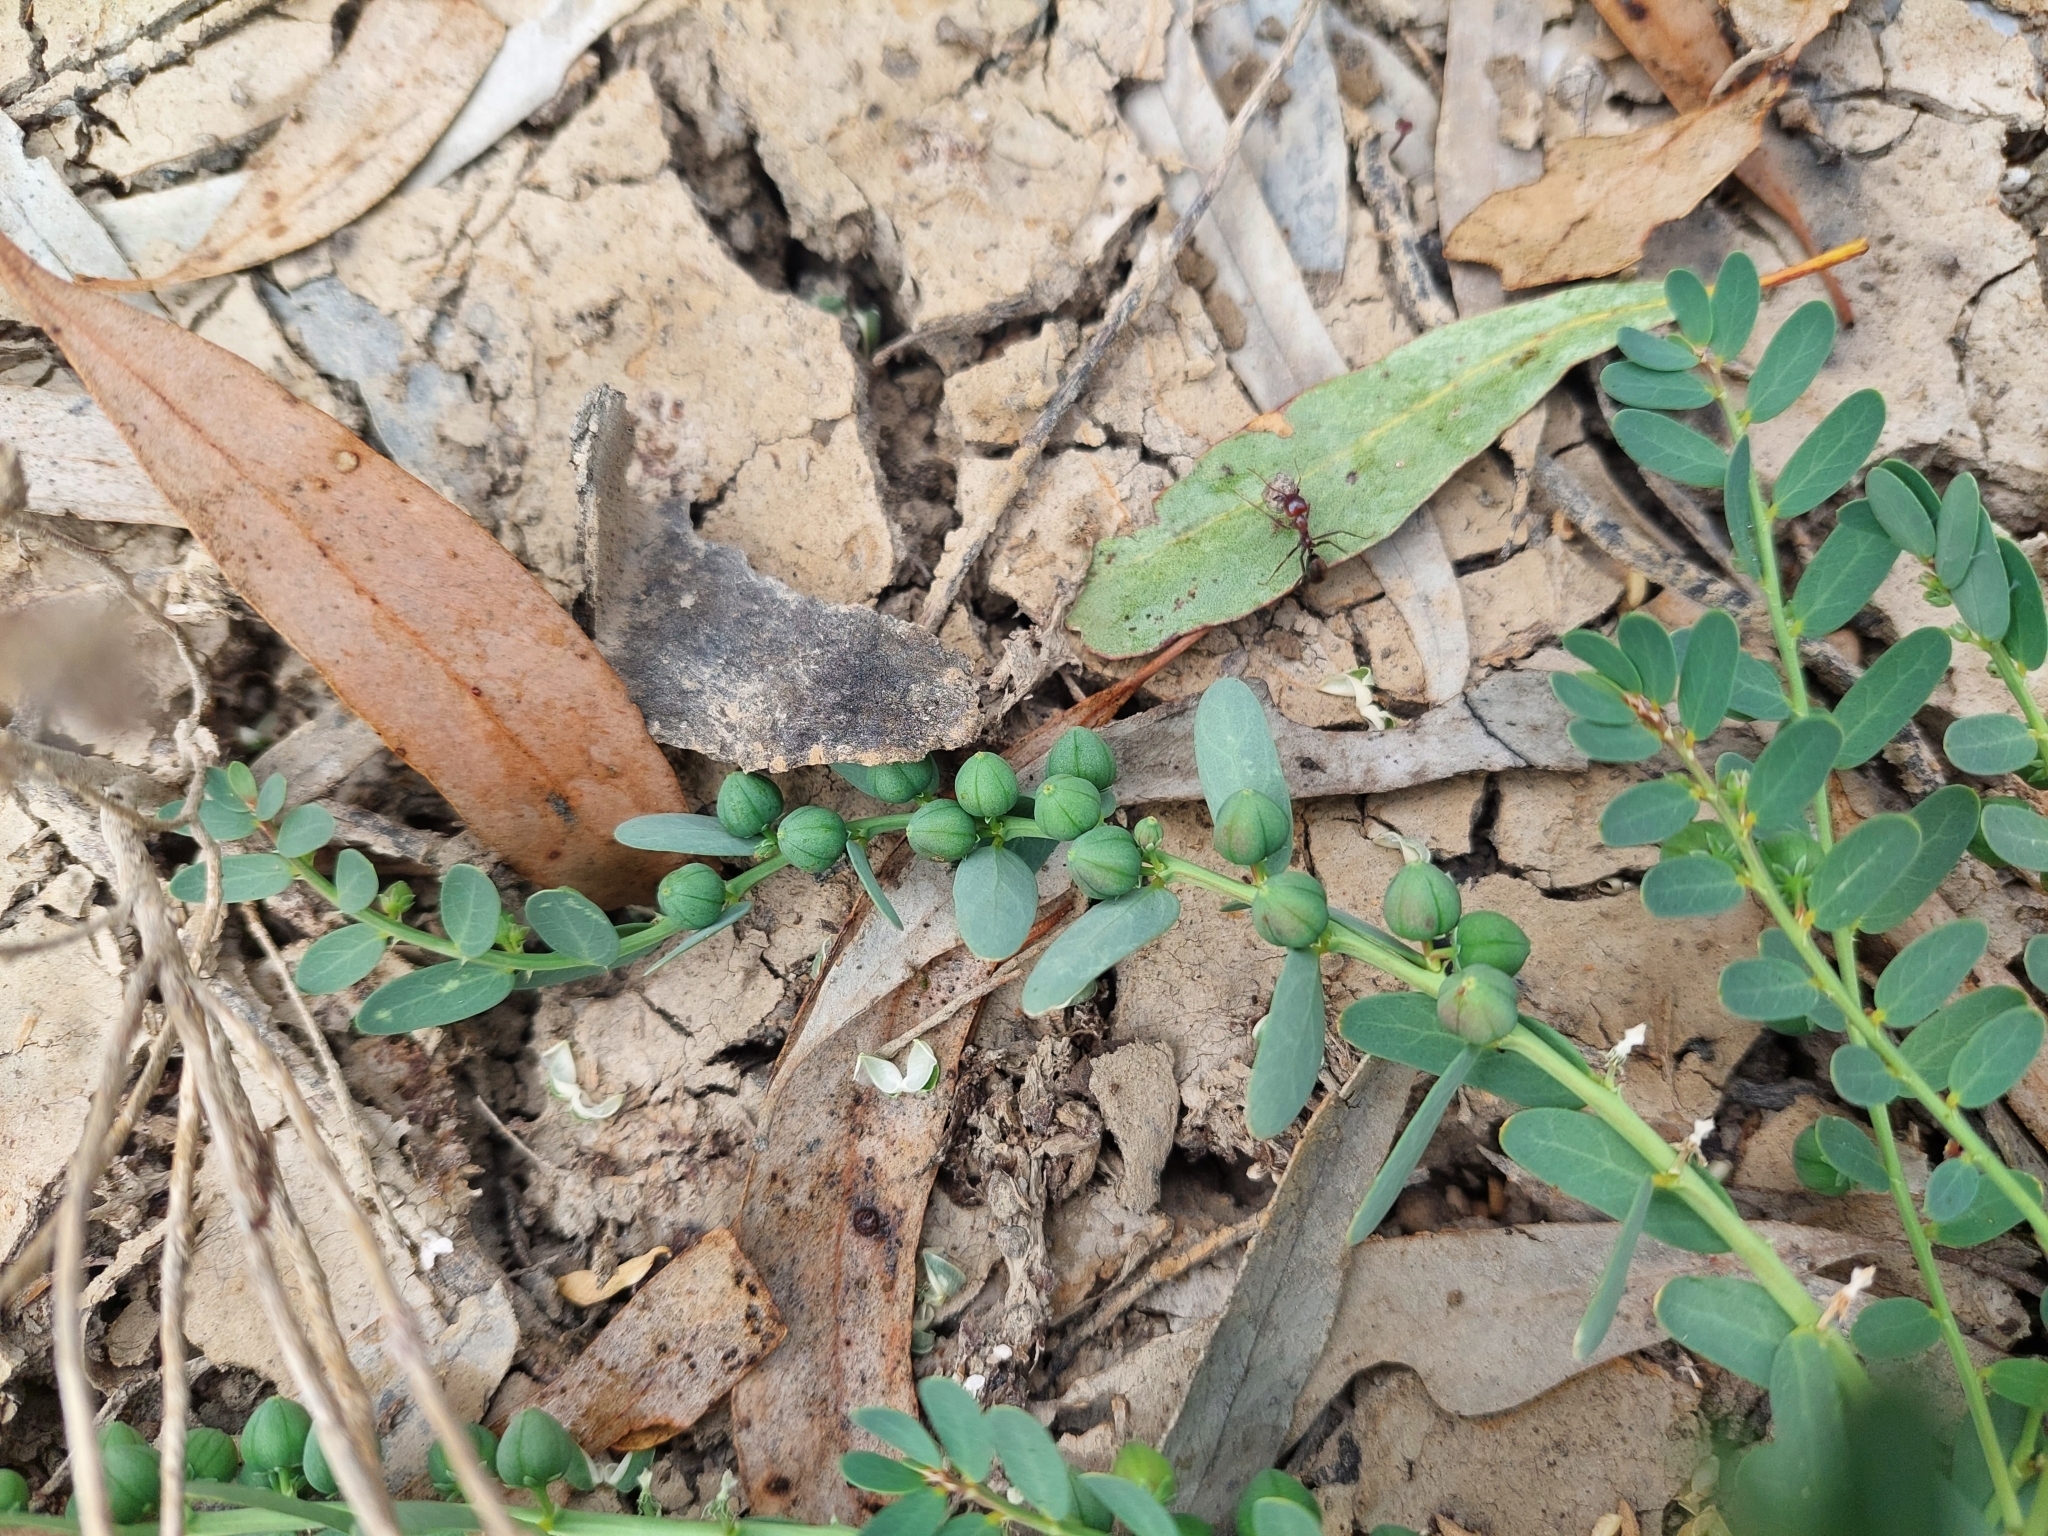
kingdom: Plantae
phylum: Tracheophyta
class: Magnoliopsida
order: Malpighiales
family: Phyllanthaceae
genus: Synostemon
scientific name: Synostemon trachyspermus
